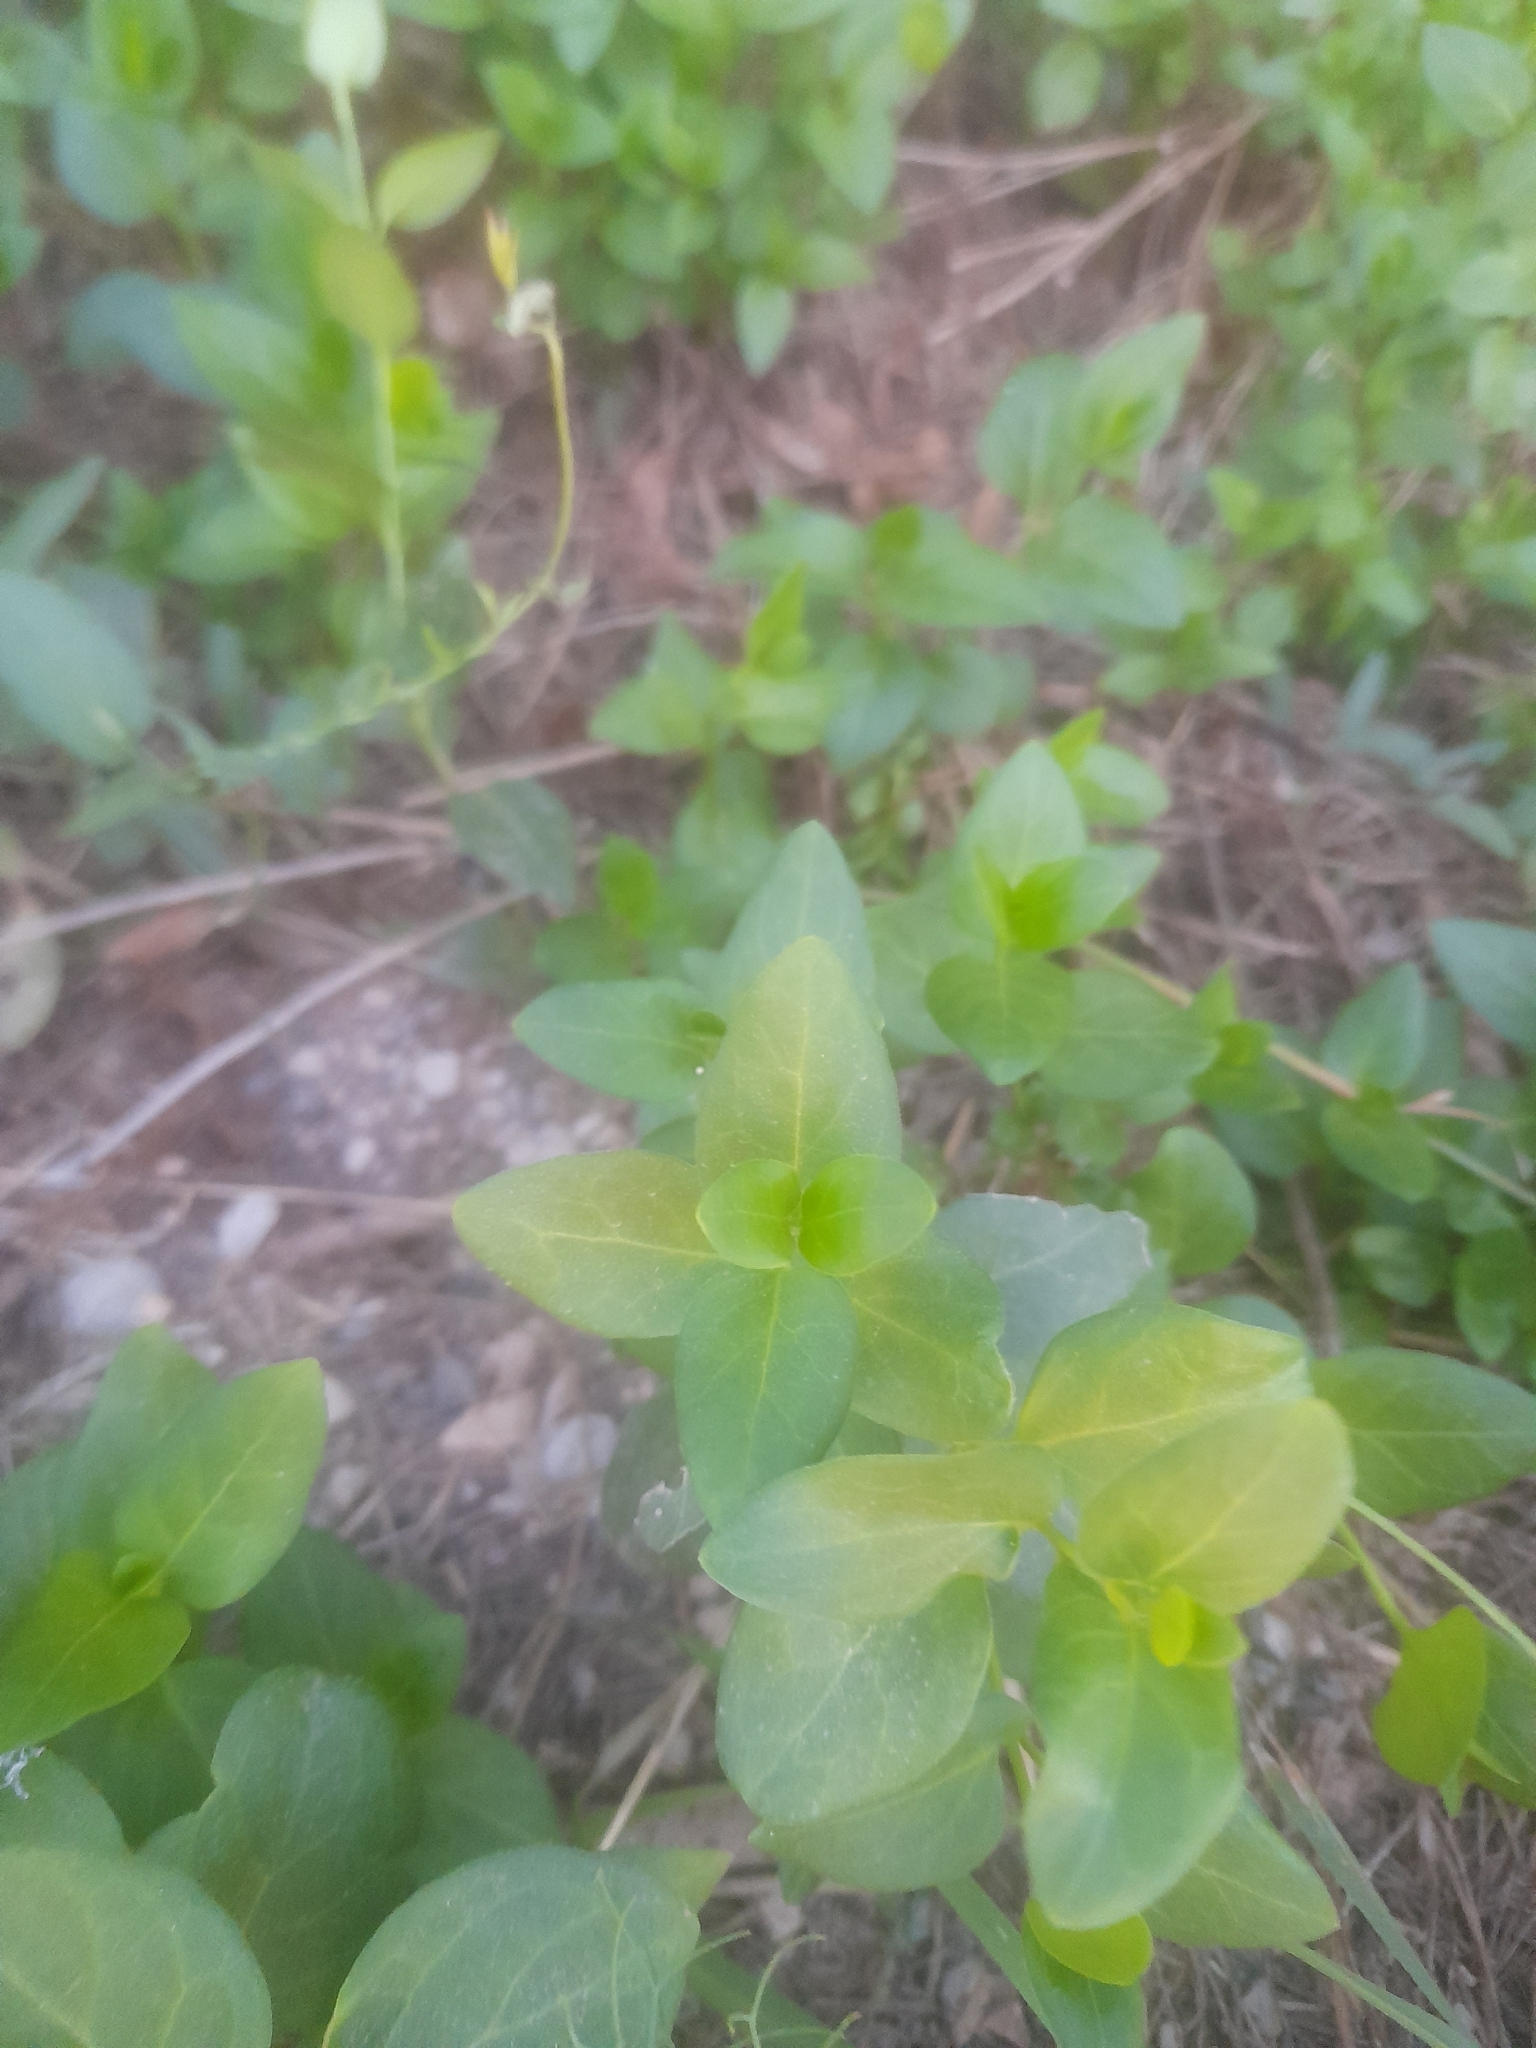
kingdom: Plantae
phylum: Tracheophyta
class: Magnoliopsida
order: Gentianales
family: Apocynaceae
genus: Vinca
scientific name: Vinca major
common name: Greater periwinkle
